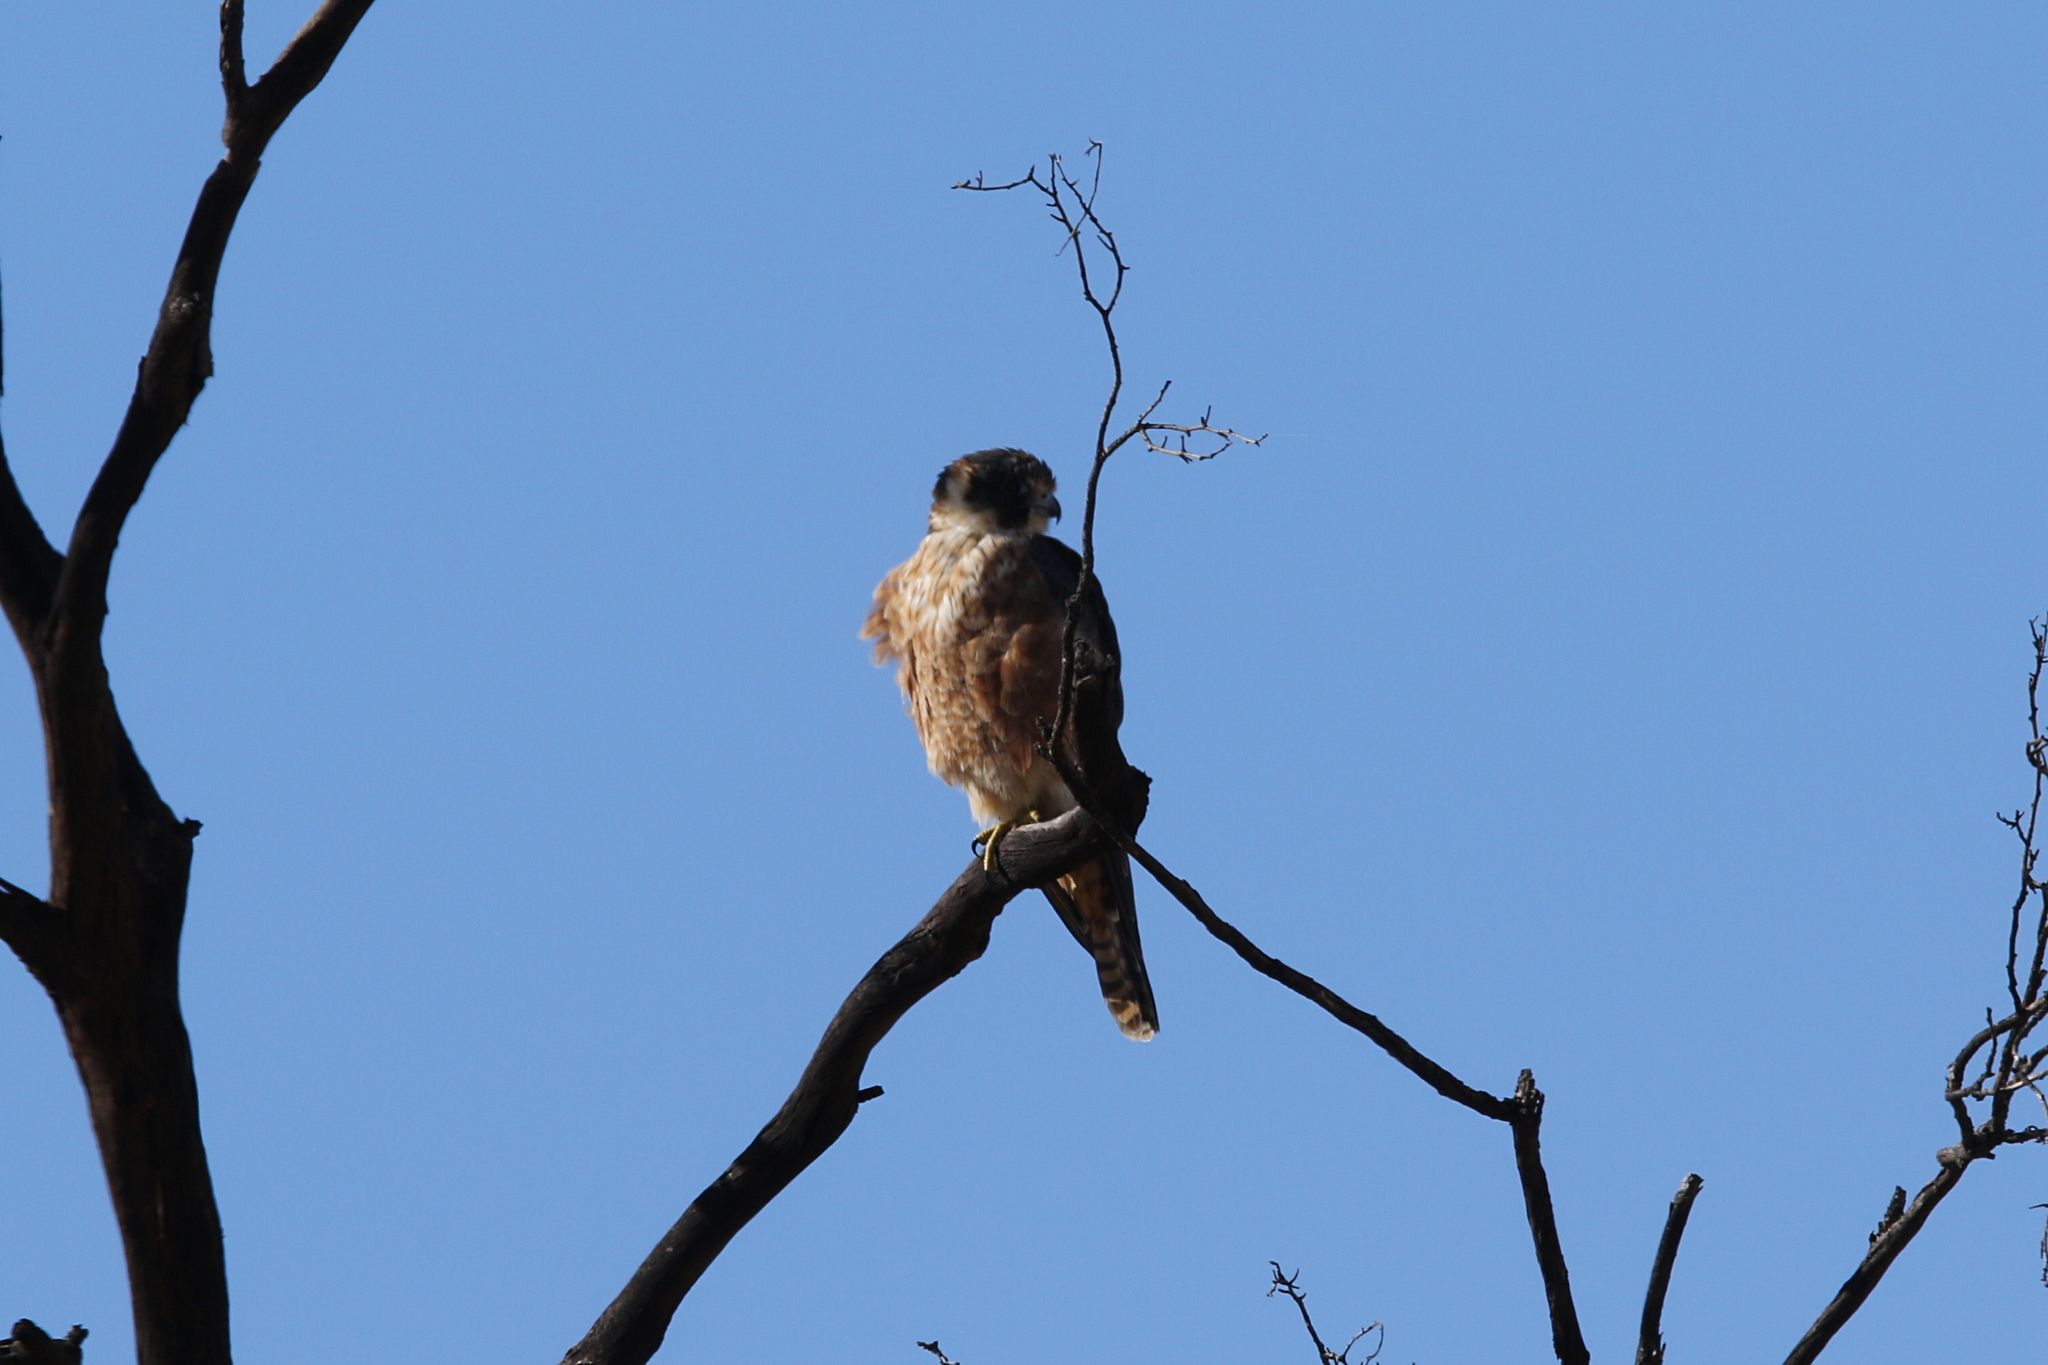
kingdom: Animalia
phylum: Chordata
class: Aves
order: Falconiformes
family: Falconidae
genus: Falco
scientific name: Falco longipennis
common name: Australian hobby
